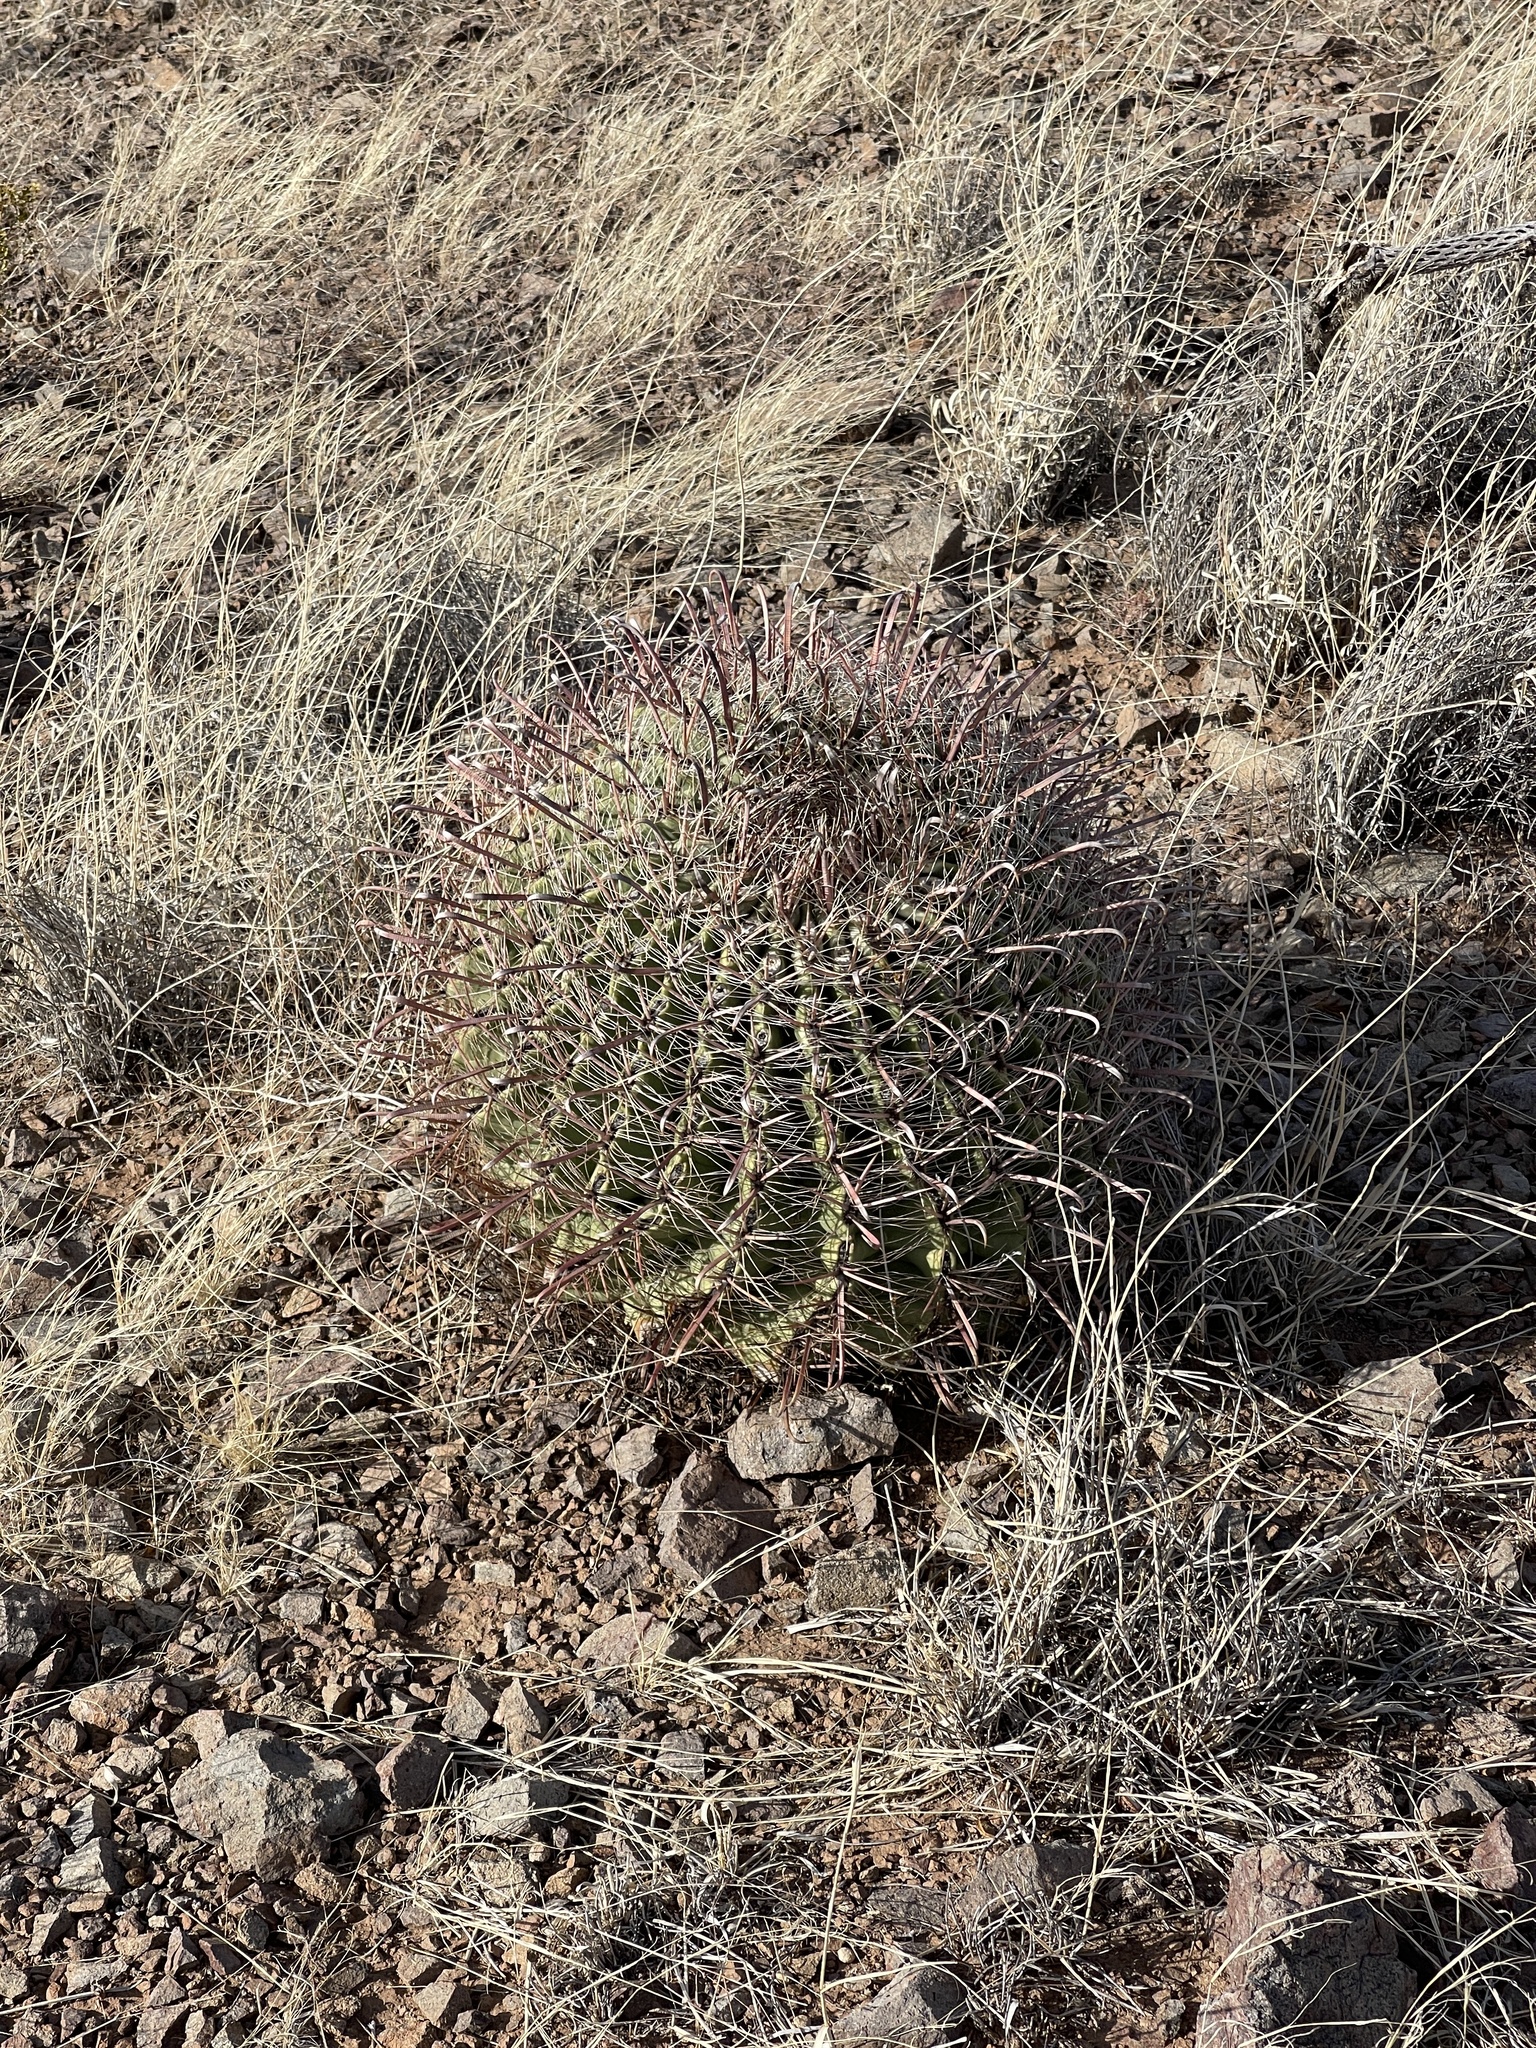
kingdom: Plantae
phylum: Tracheophyta
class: Magnoliopsida
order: Caryophyllales
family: Cactaceae
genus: Ferocactus
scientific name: Ferocactus wislizeni
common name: Candy barrel cactus
